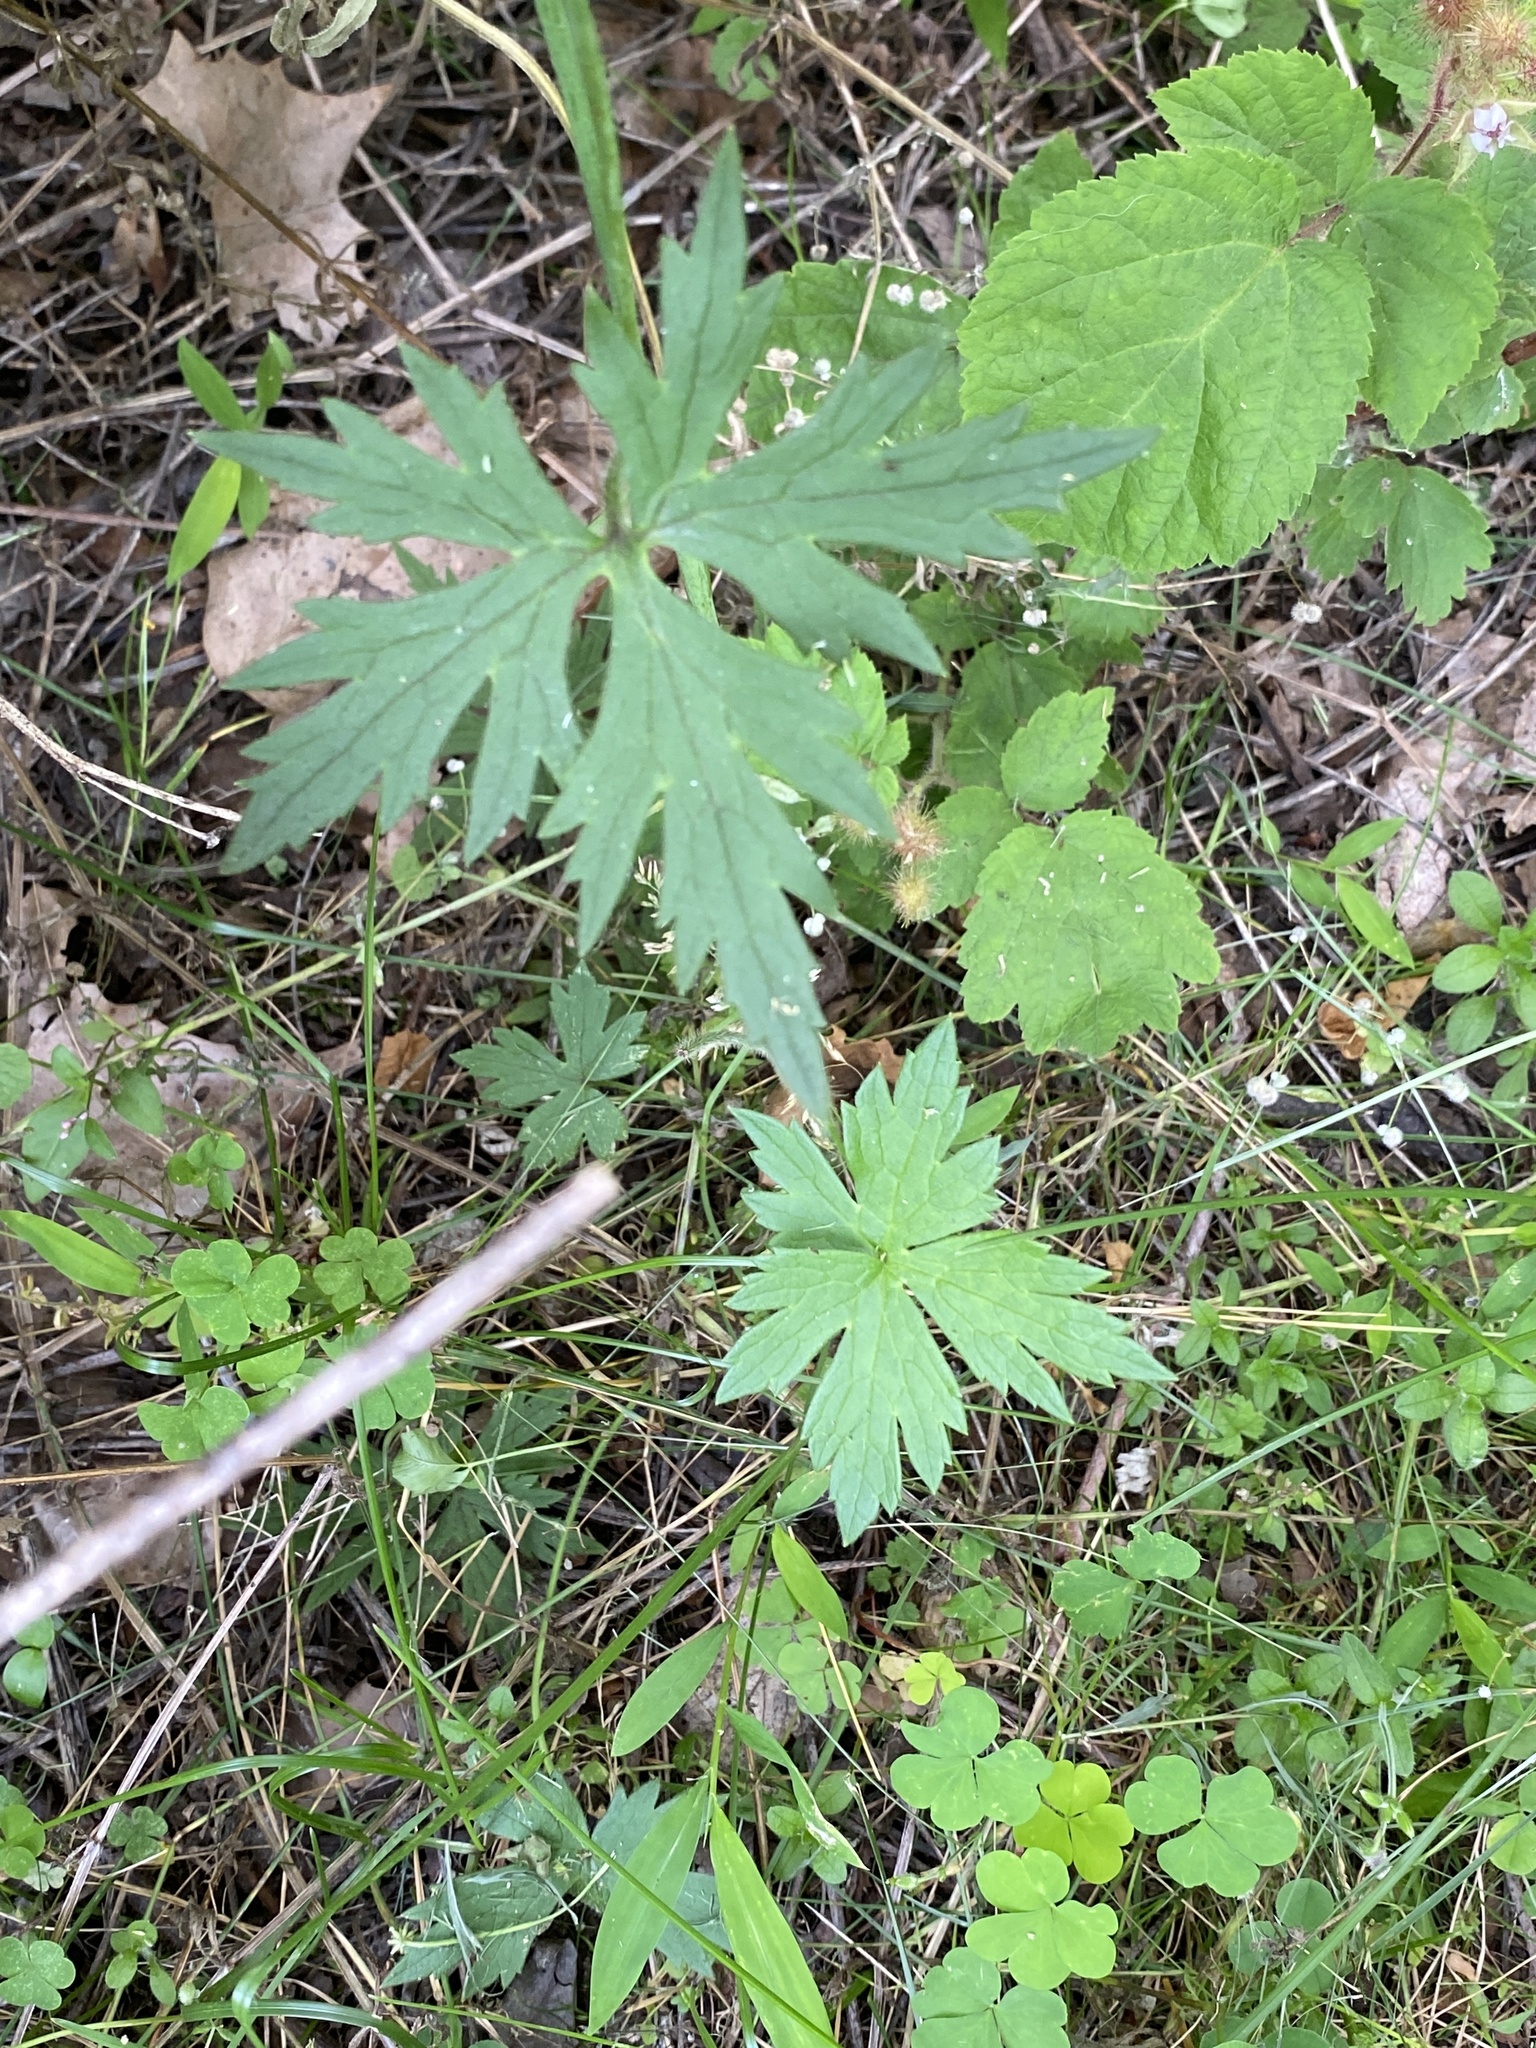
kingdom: Plantae
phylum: Tracheophyta
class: Magnoliopsida
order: Ranunculales
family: Ranunculaceae
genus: Ranunculus
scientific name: Ranunculus acris
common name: Meadow buttercup
